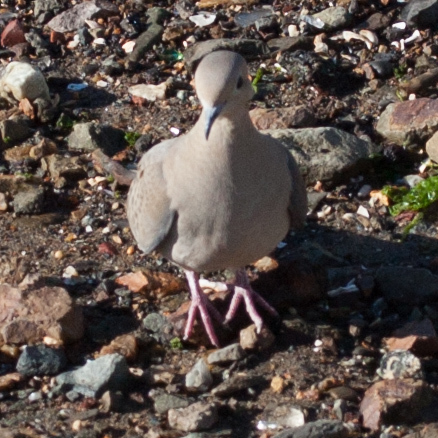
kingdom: Animalia
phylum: Chordata
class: Aves
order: Columbiformes
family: Columbidae
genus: Zenaida
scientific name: Zenaida macroura
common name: Mourning dove
